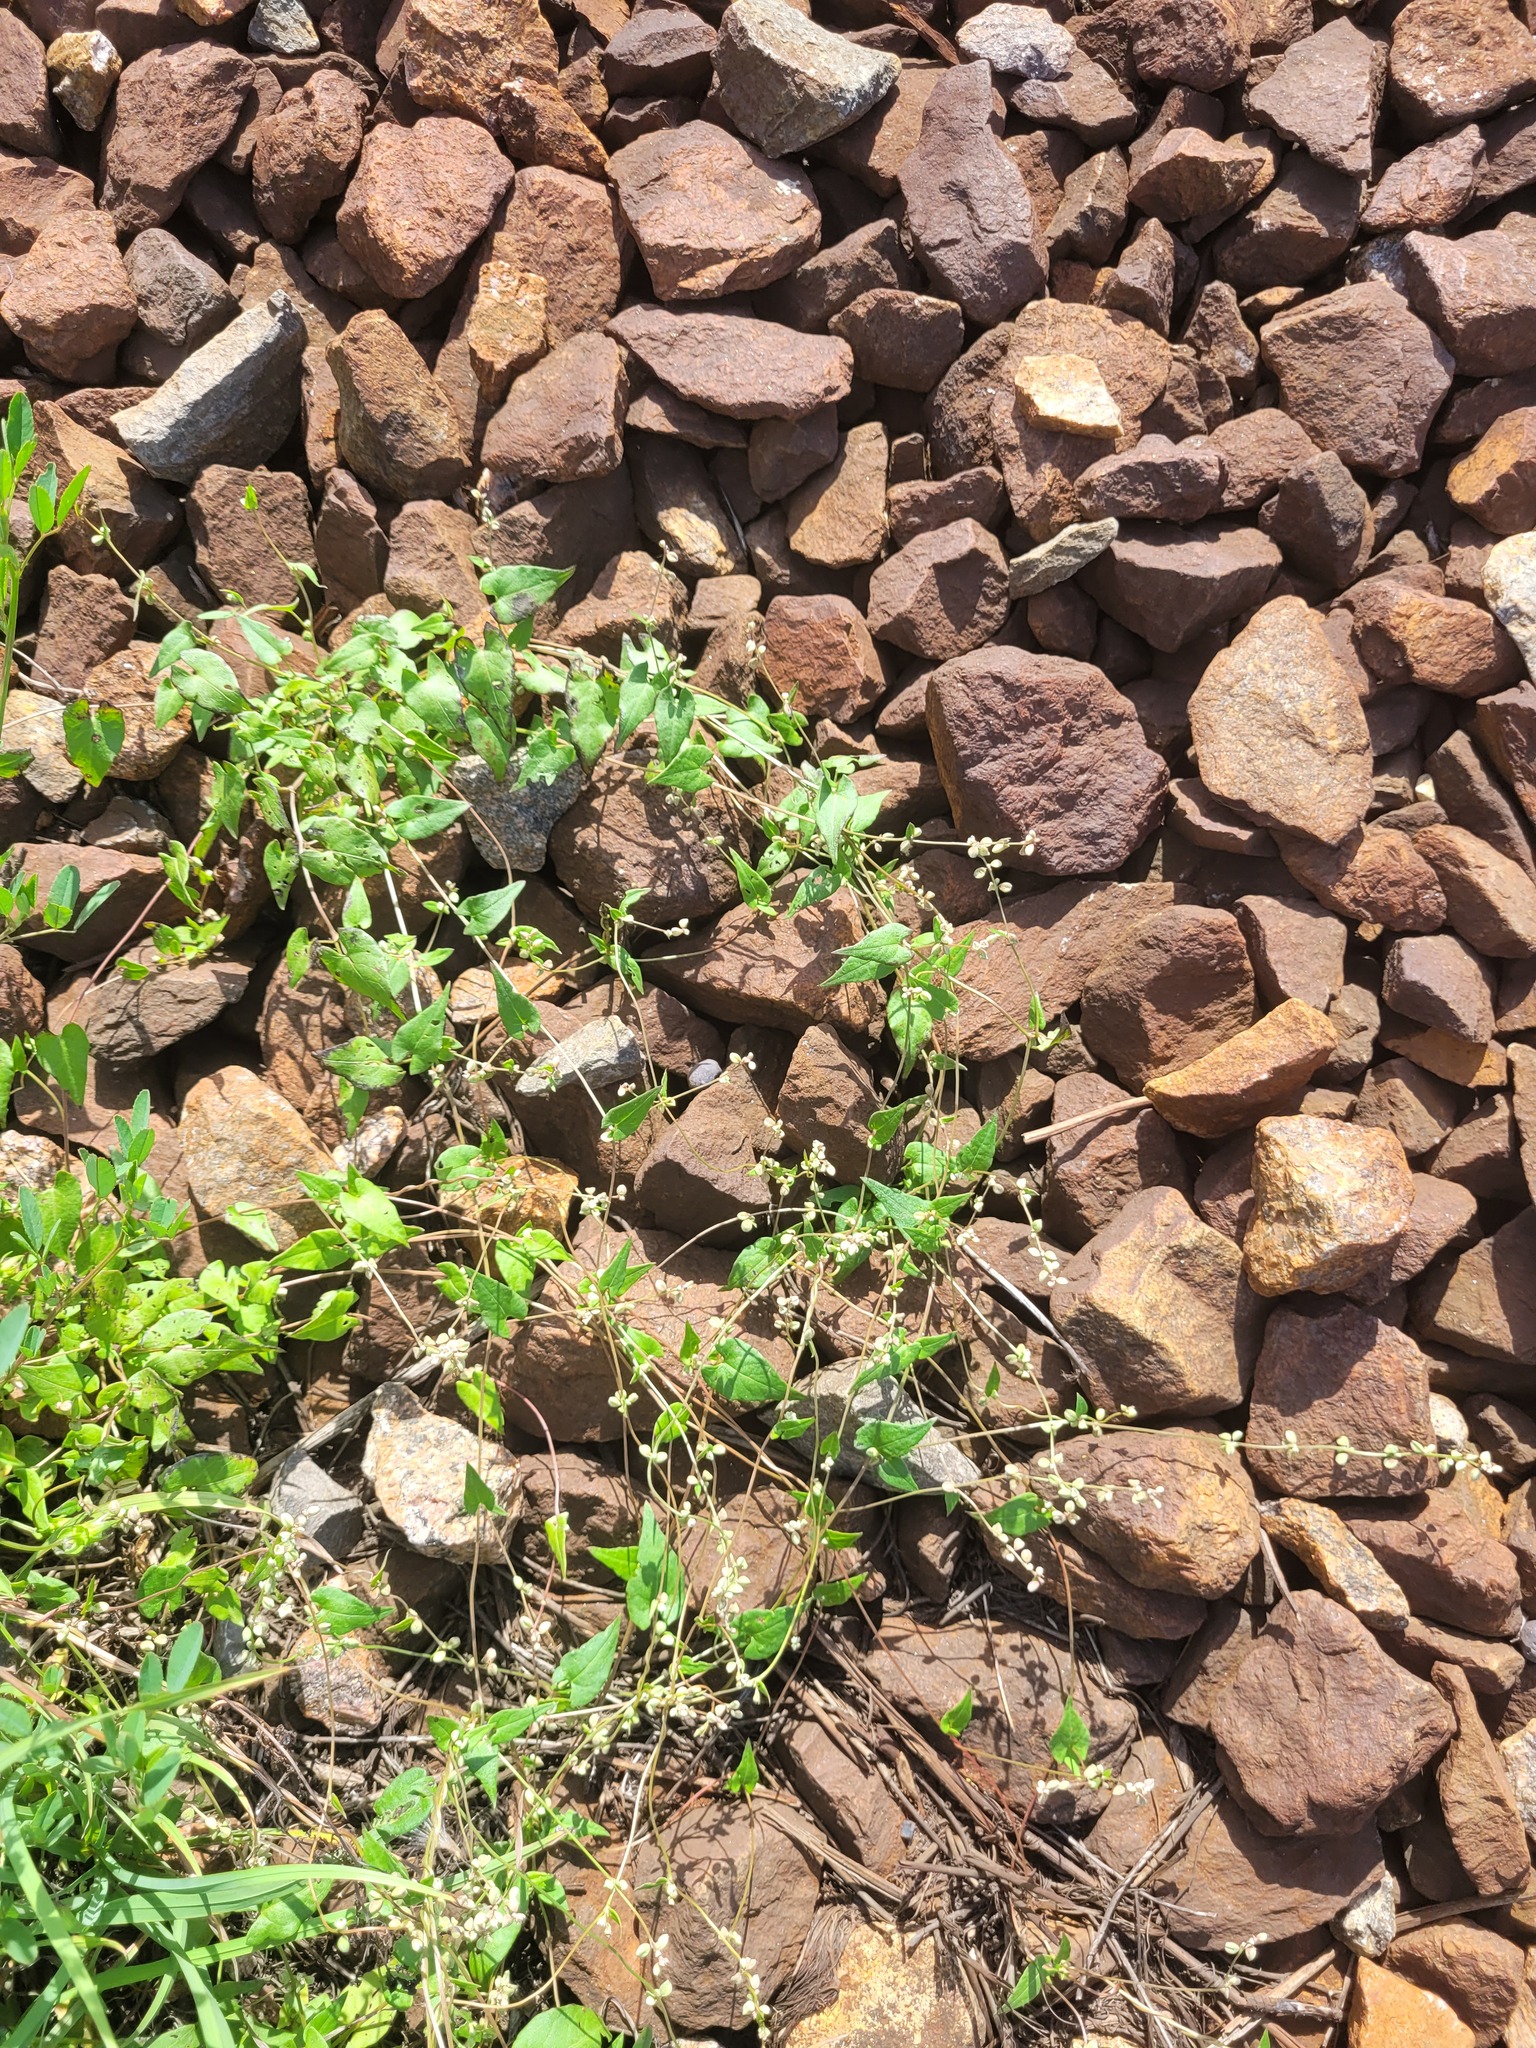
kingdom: Plantae
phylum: Tracheophyta
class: Magnoliopsida
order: Caryophyllales
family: Polygonaceae
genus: Fallopia
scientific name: Fallopia convolvulus
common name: Black bindweed
